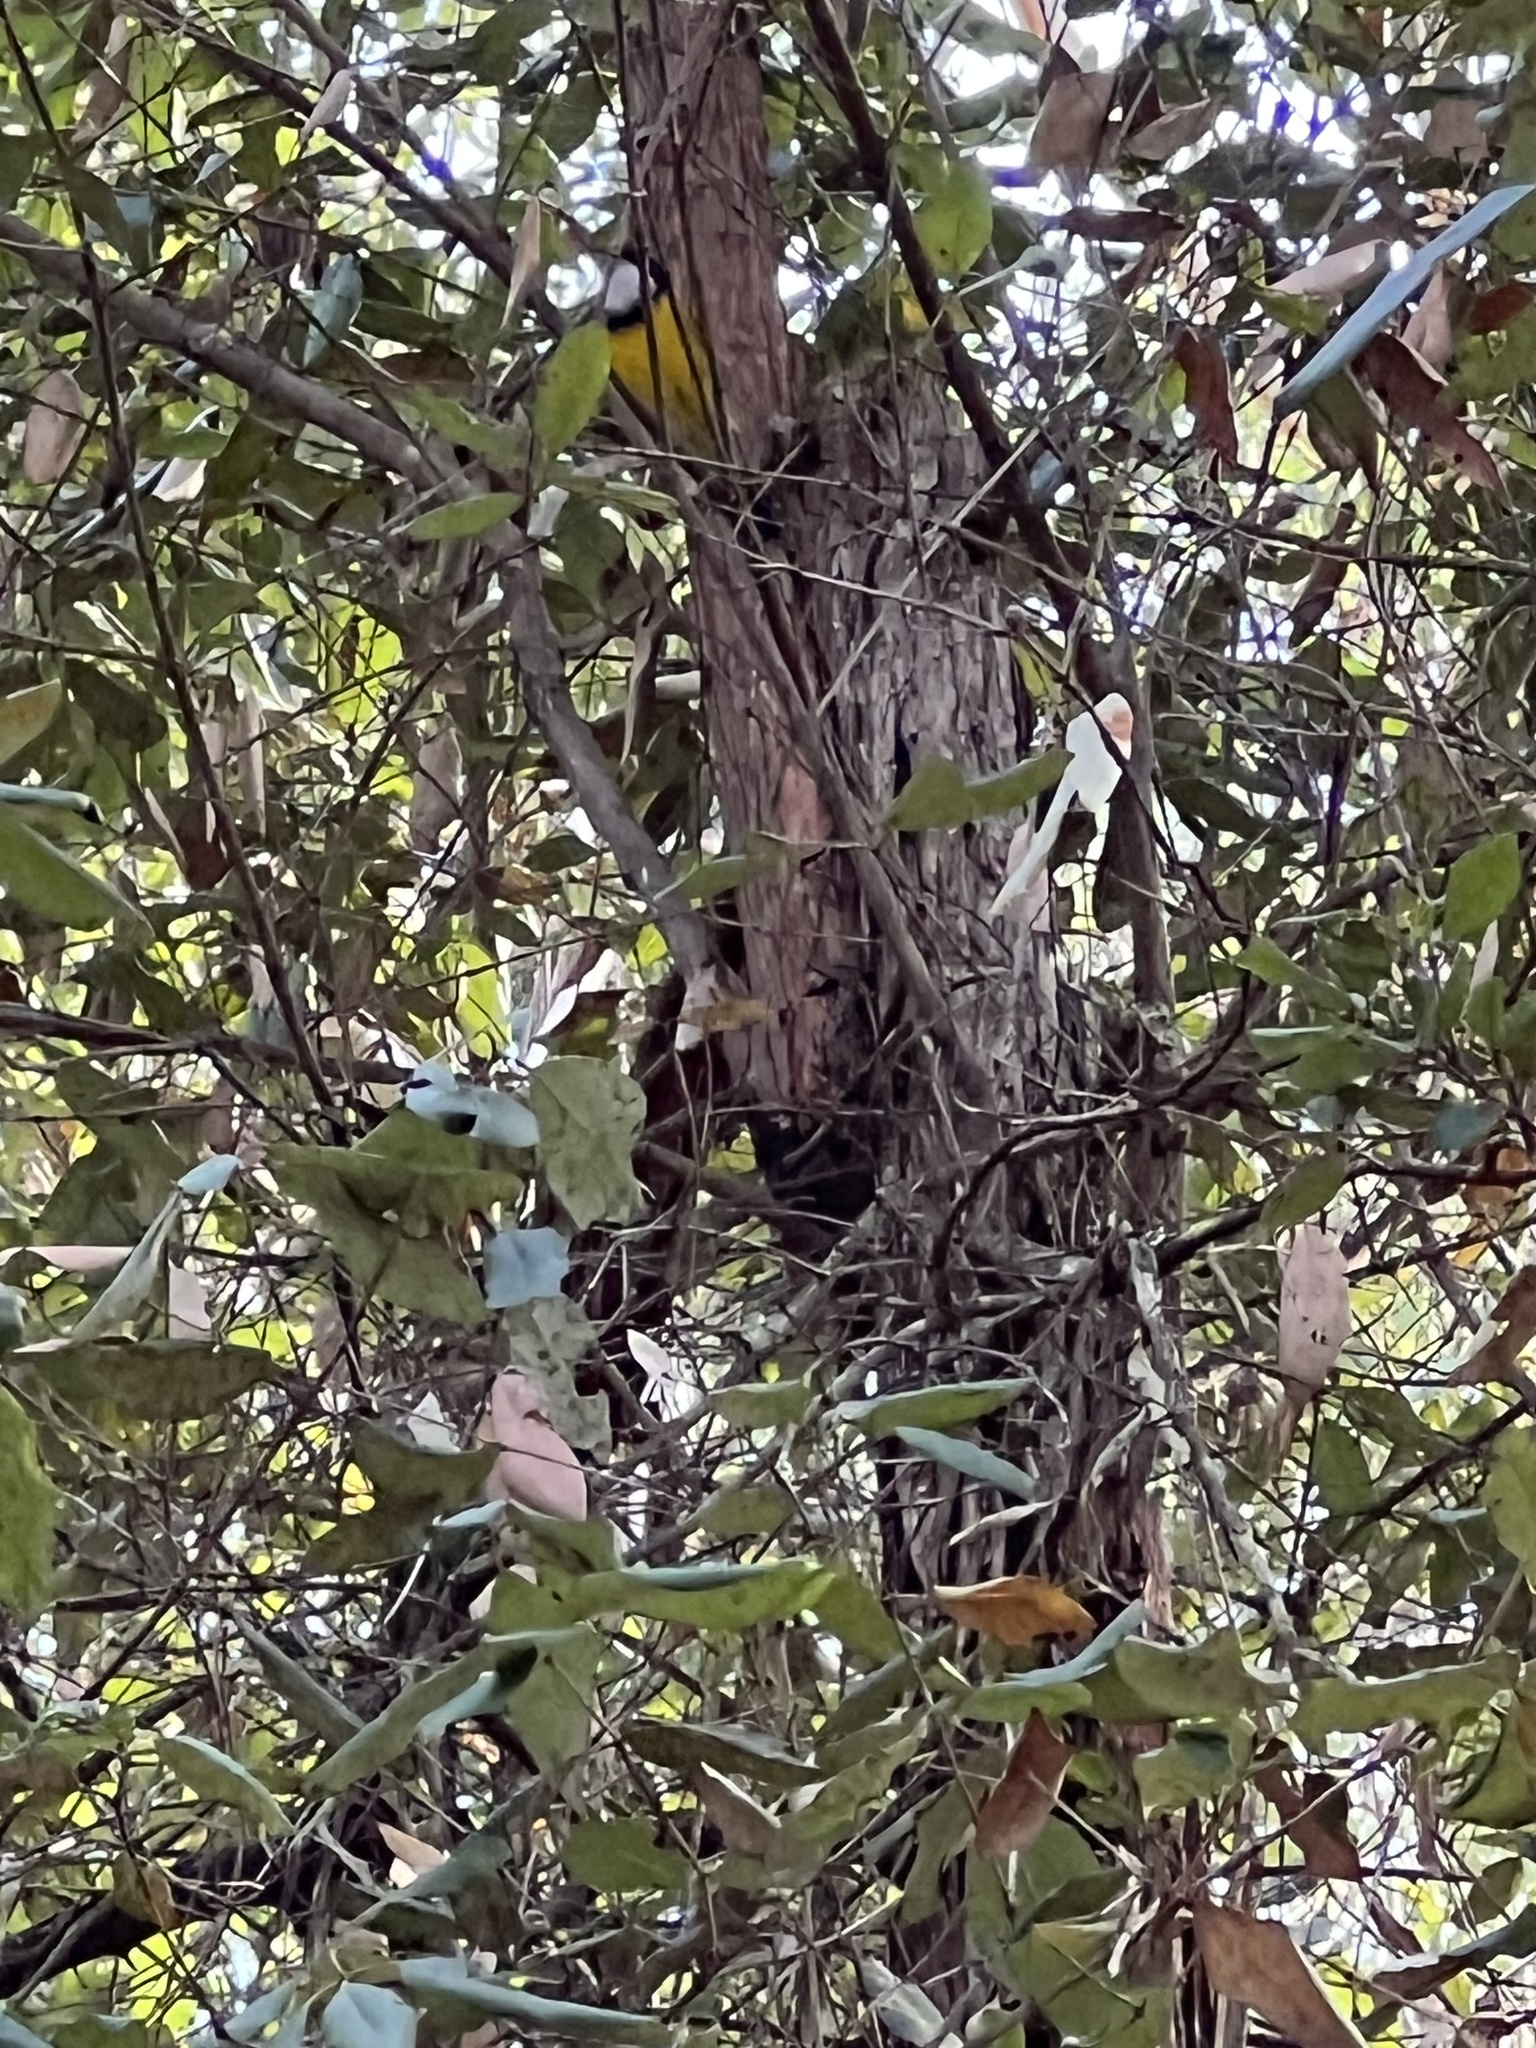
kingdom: Animalia
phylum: Chordata
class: Aves
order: Passeriformes
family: Pachycephalidae
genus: Pachycephala
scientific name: Pachycephala pectoralis
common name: Australian golden whistler
